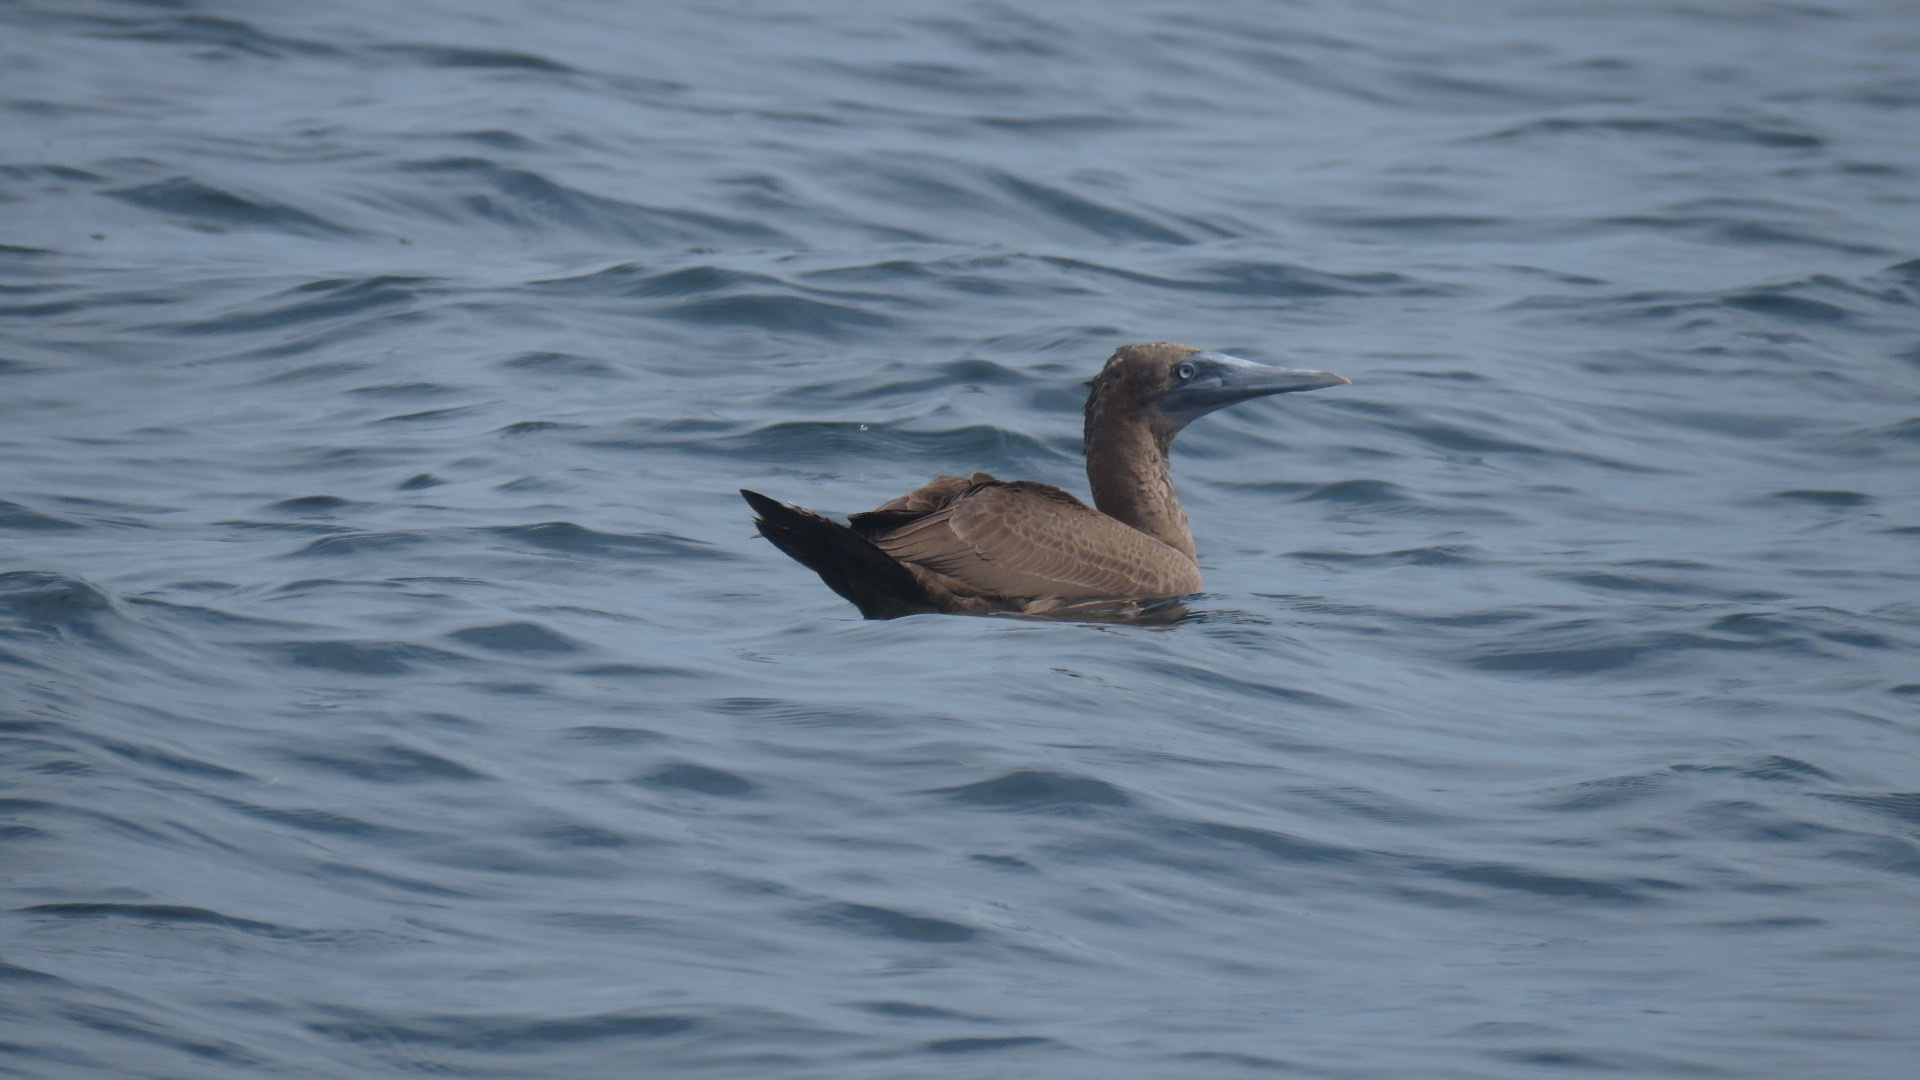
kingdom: Animalia
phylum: Chordata
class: Aves
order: Suliformes
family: Sulidae
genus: Sula
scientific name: Sula leucogaster
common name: Brown booby
